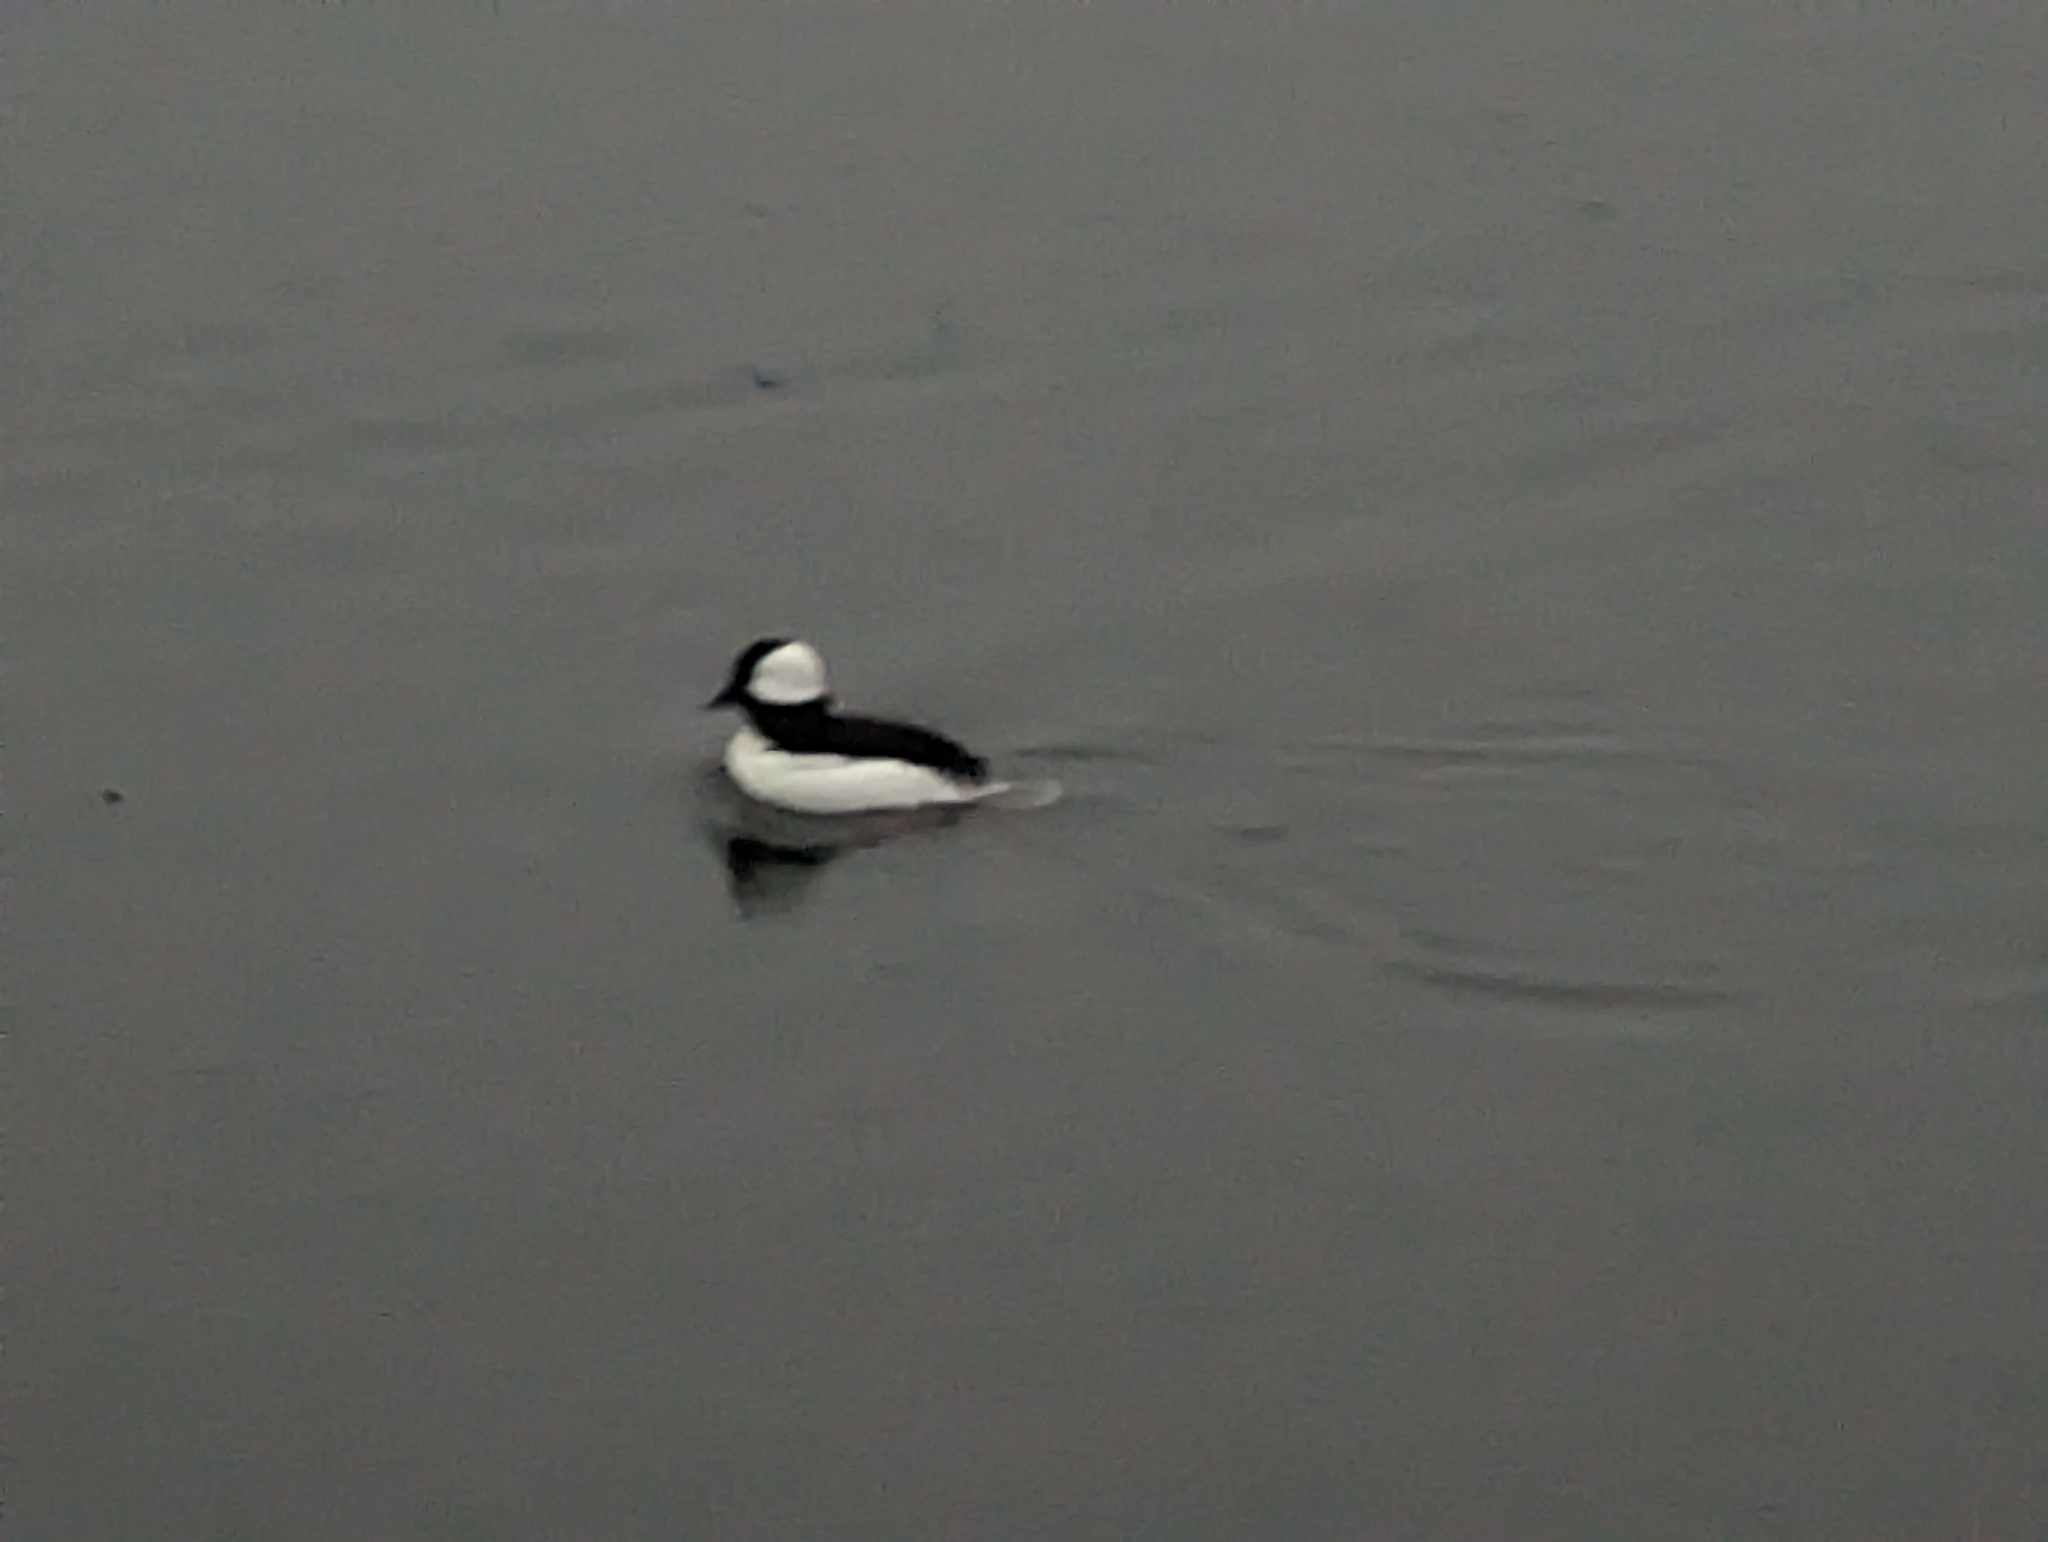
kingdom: Animalia
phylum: Chordata
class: Aves
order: Anseriformes
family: Anatidae
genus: Bucephala
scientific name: Bucephala albeola
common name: Bufflehead
